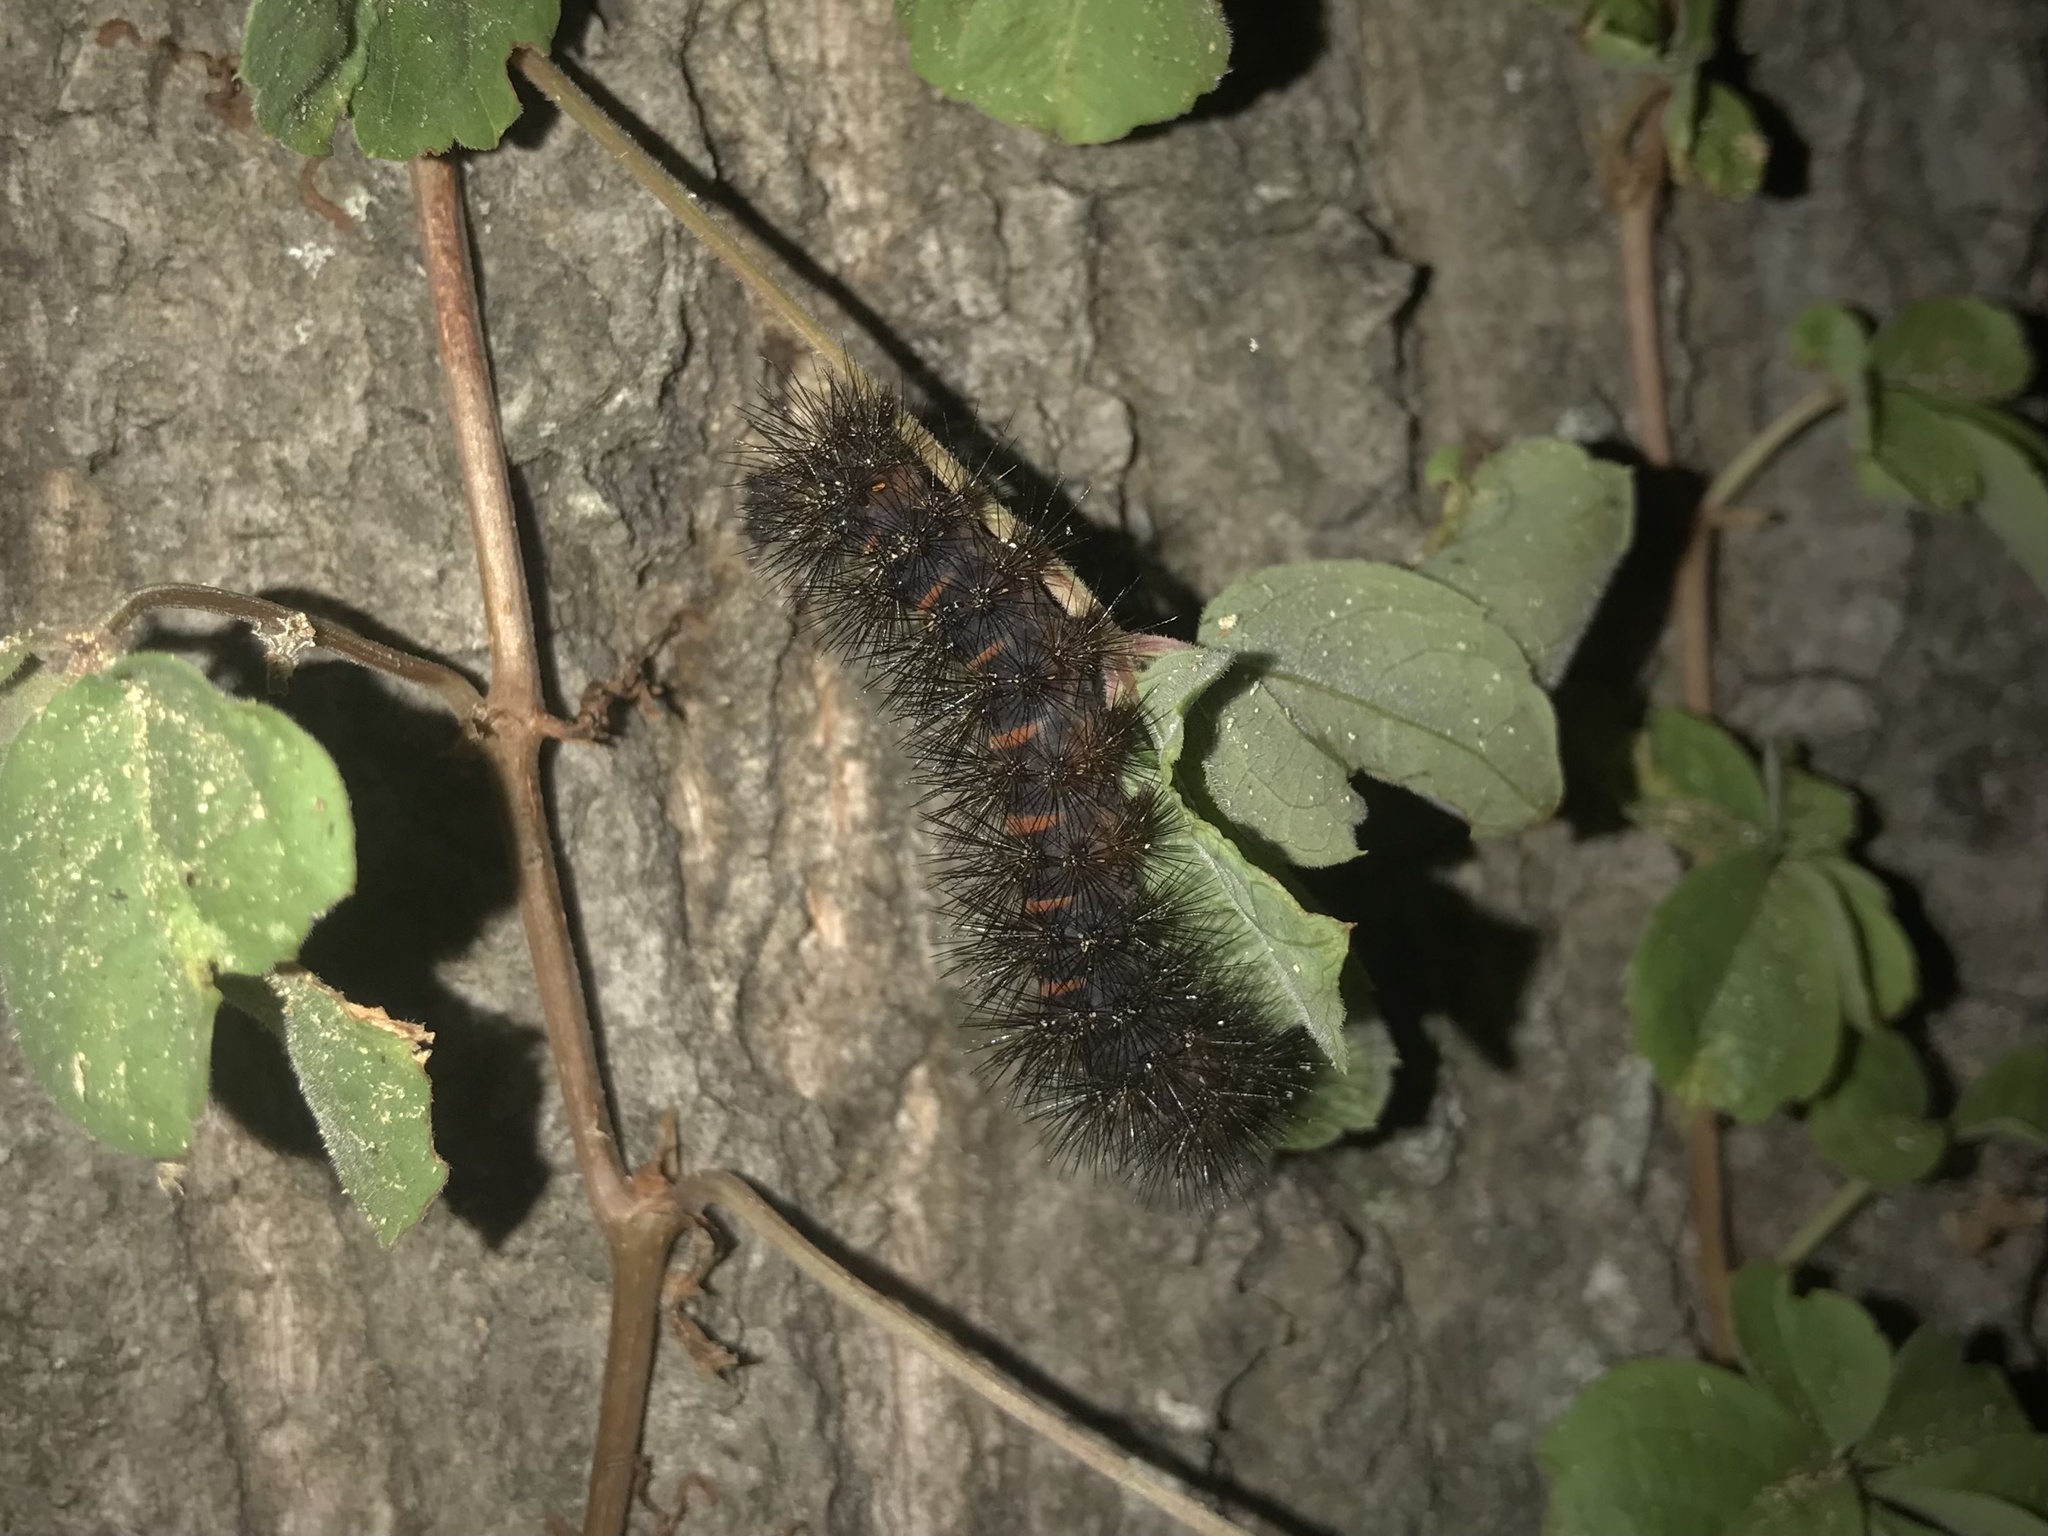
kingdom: Animalia
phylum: Arthropoda
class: Insecta
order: Lepidoptera
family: Erebidae
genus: Hypercompe
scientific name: Hypercompe scribonia
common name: Giant leopard moth
